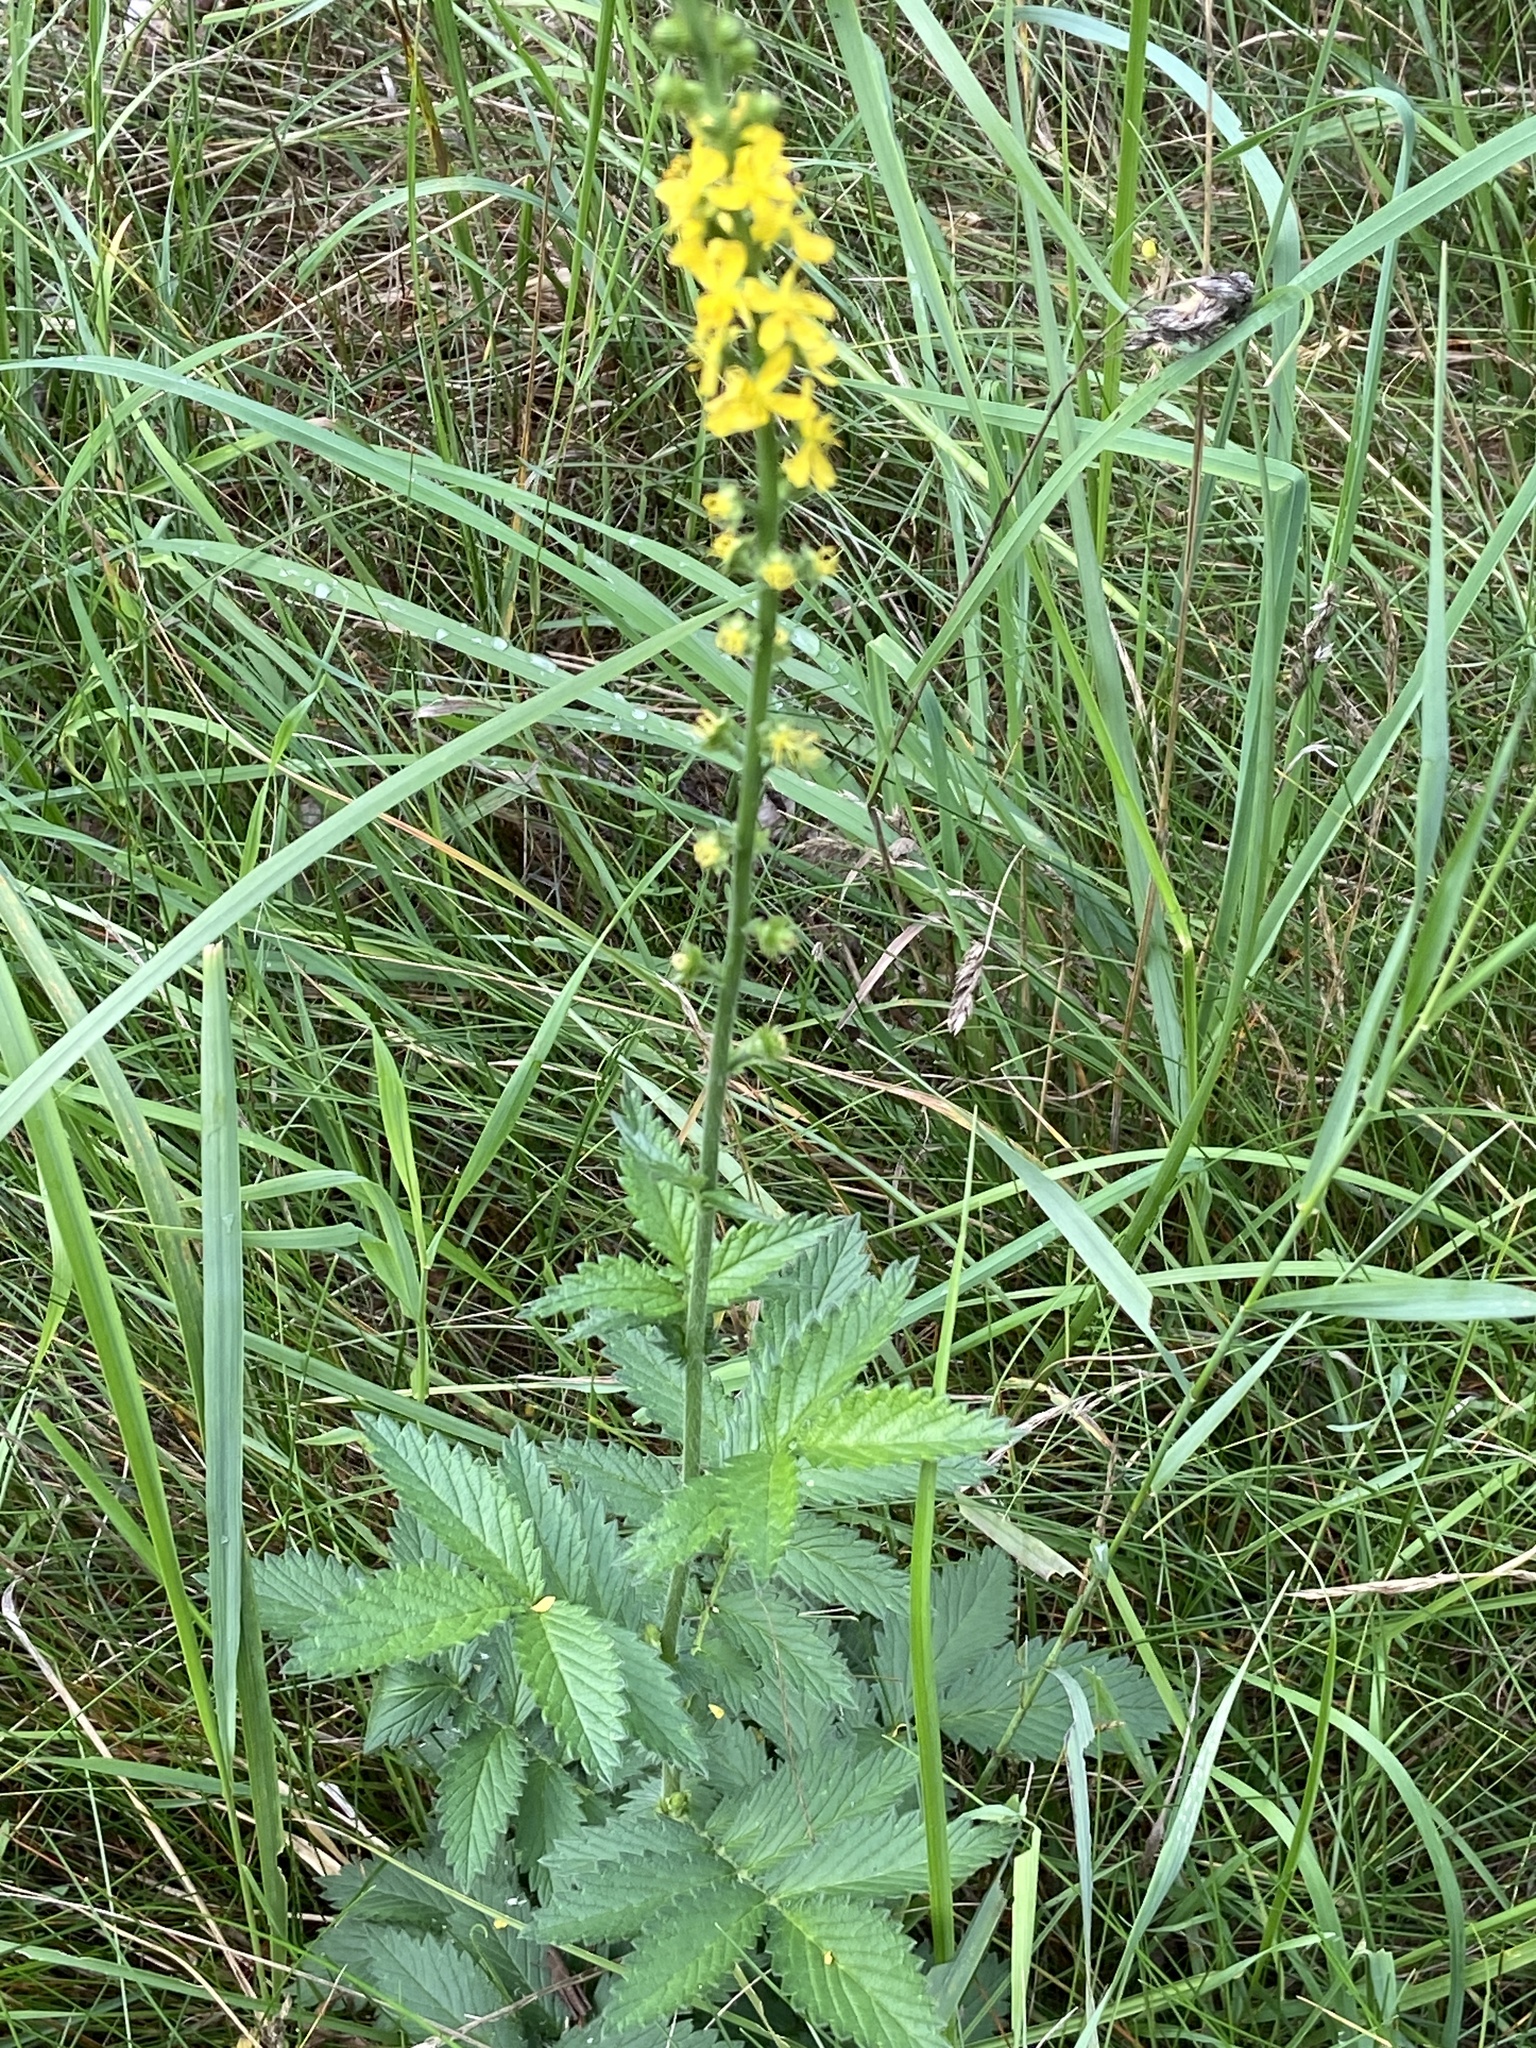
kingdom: Plantae
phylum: Tracheophyta
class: Magnoliopsida
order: Rosales
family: Rosaceae
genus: Agrimonia
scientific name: Agrimonia eupatoria
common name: Agrimony
